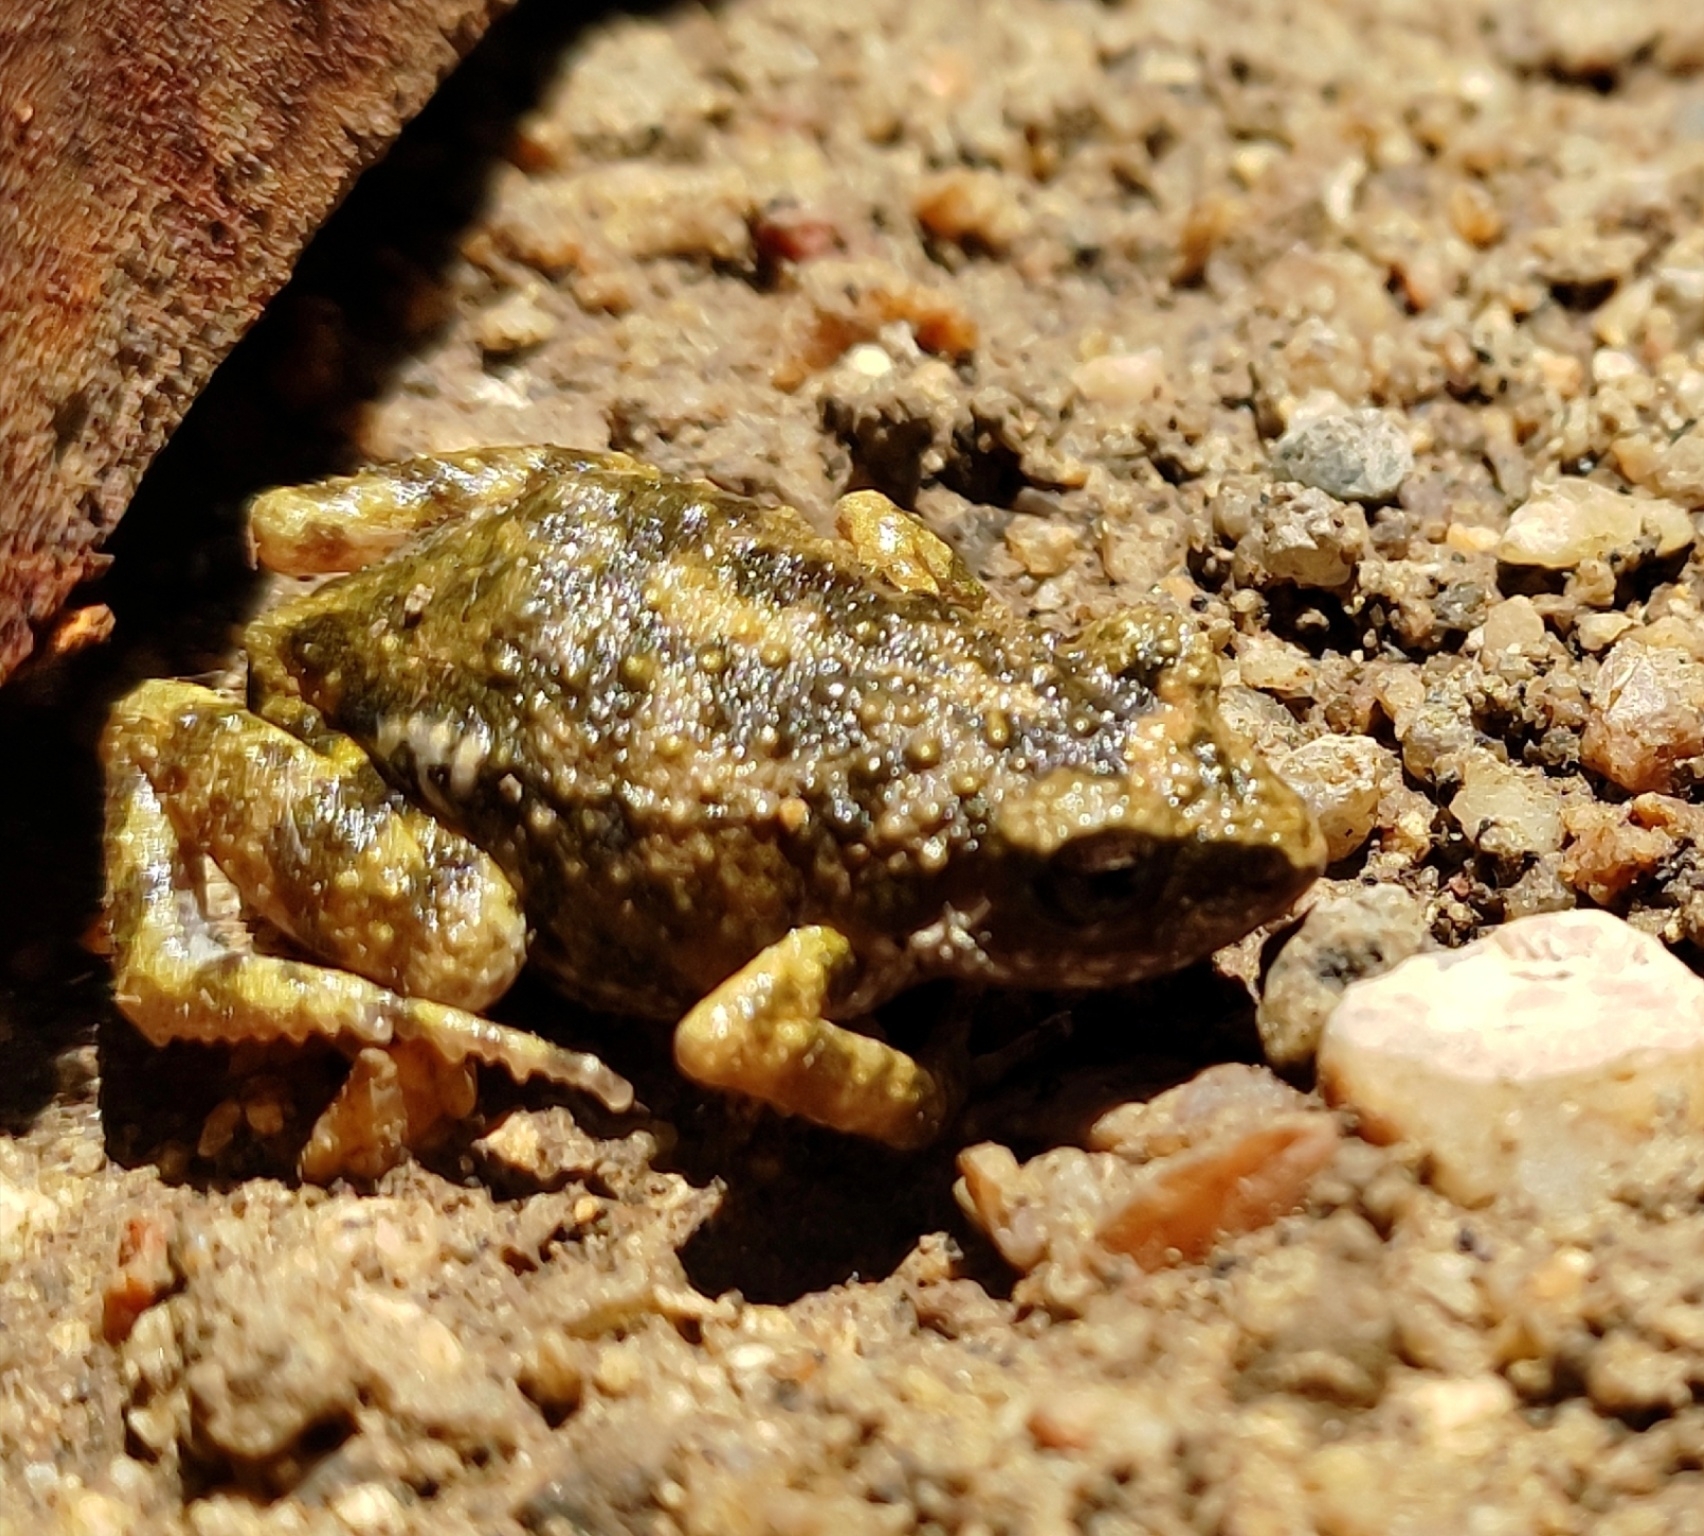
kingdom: Animalia
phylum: Chordata
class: Amphibia
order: Anura
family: Eleutherodactylidae
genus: Eleutherodactylus
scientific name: Eleutherodactylus nitidus
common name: Peters' shiny peeping frog
